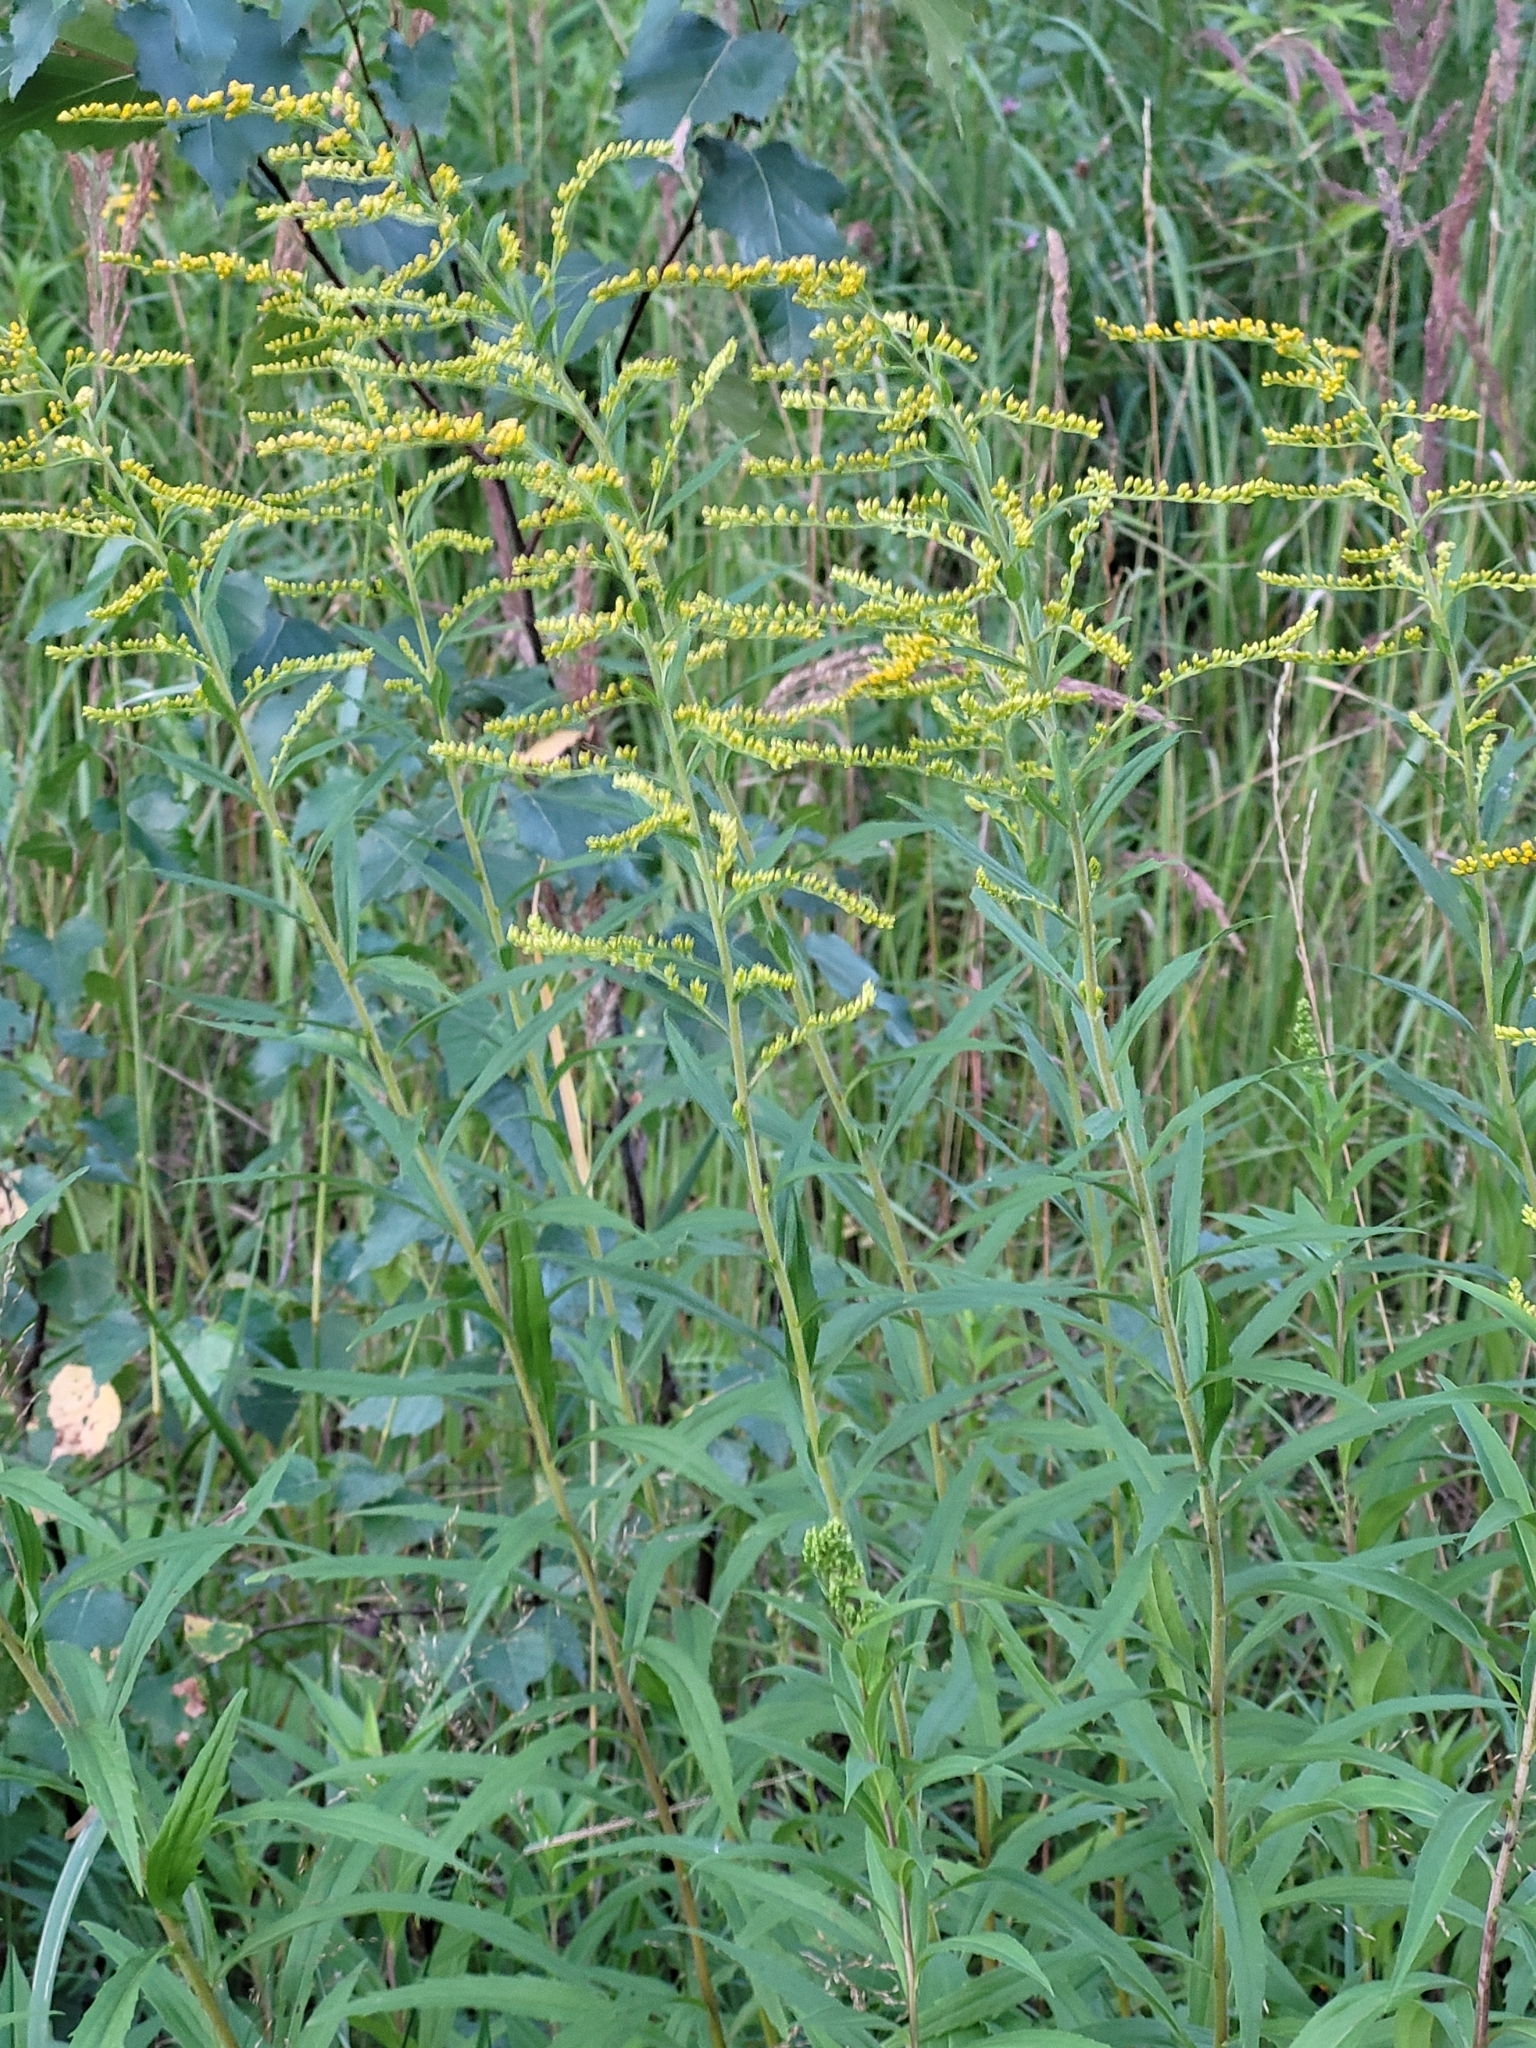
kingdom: Plantae
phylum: Tracheophyta
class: Magnoliopsida
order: Asterales
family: Asteraceae
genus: Solidago
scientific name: Solidago canadensis
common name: Canada goldenrod
